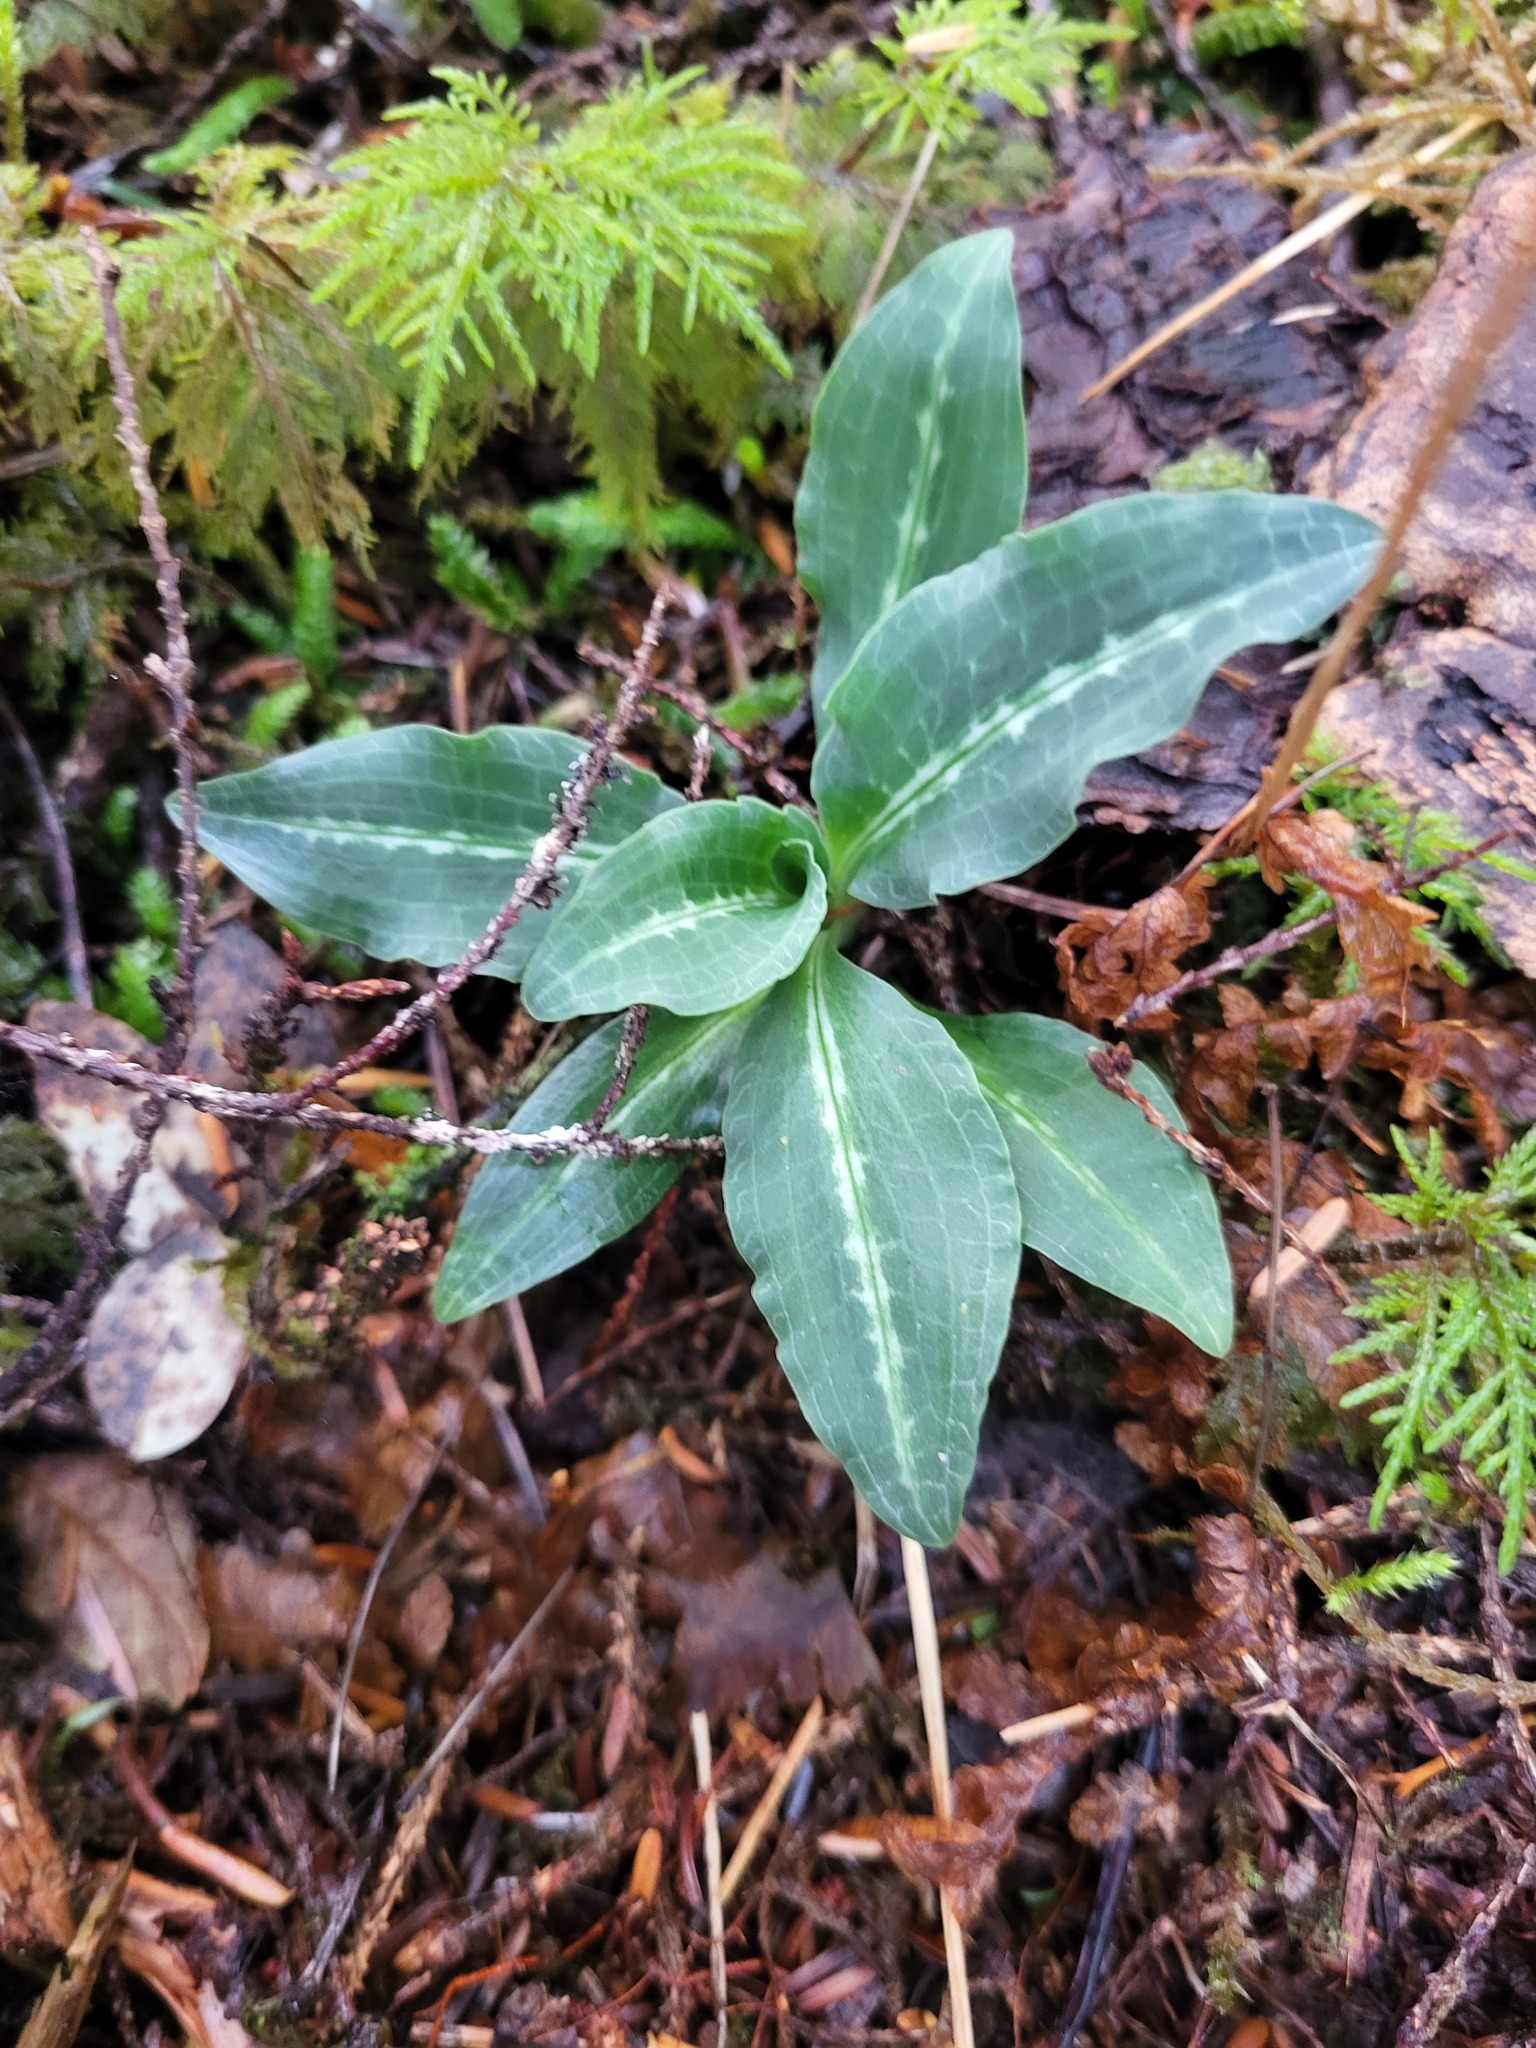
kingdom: Plantae
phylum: Tracheophyta
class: Liliopsida
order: Asparagales
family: Orchidaceae
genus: Goodyera
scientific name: Goodyera oblongifolia
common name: Giant rattlesnake-plantain
